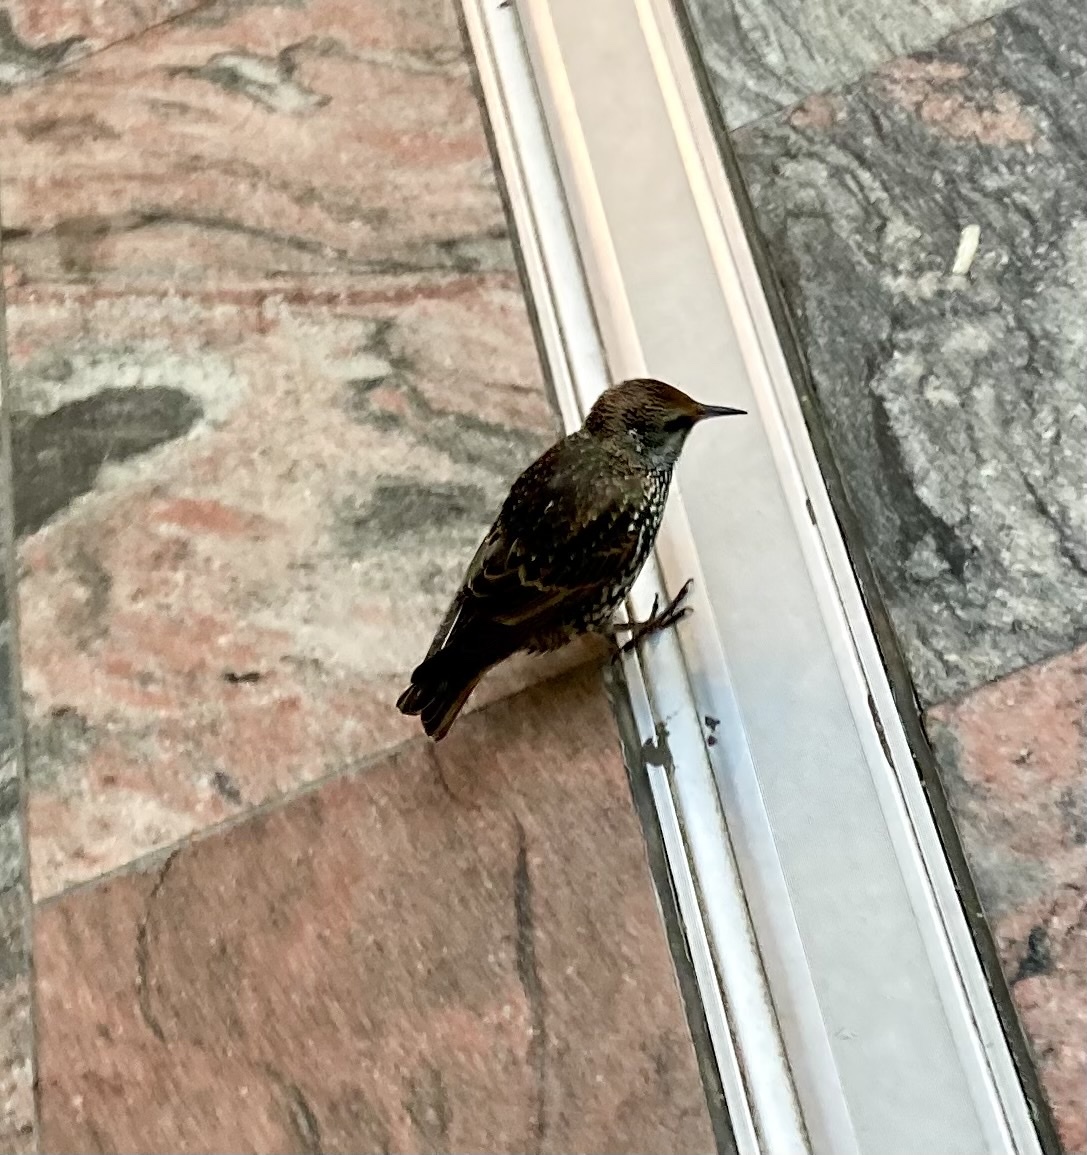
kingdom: Animalia
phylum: Chordata
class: Aves
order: Passeriformes
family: Sturnidae
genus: Sturnus
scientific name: Sturnus vulgaris
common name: Common starling
